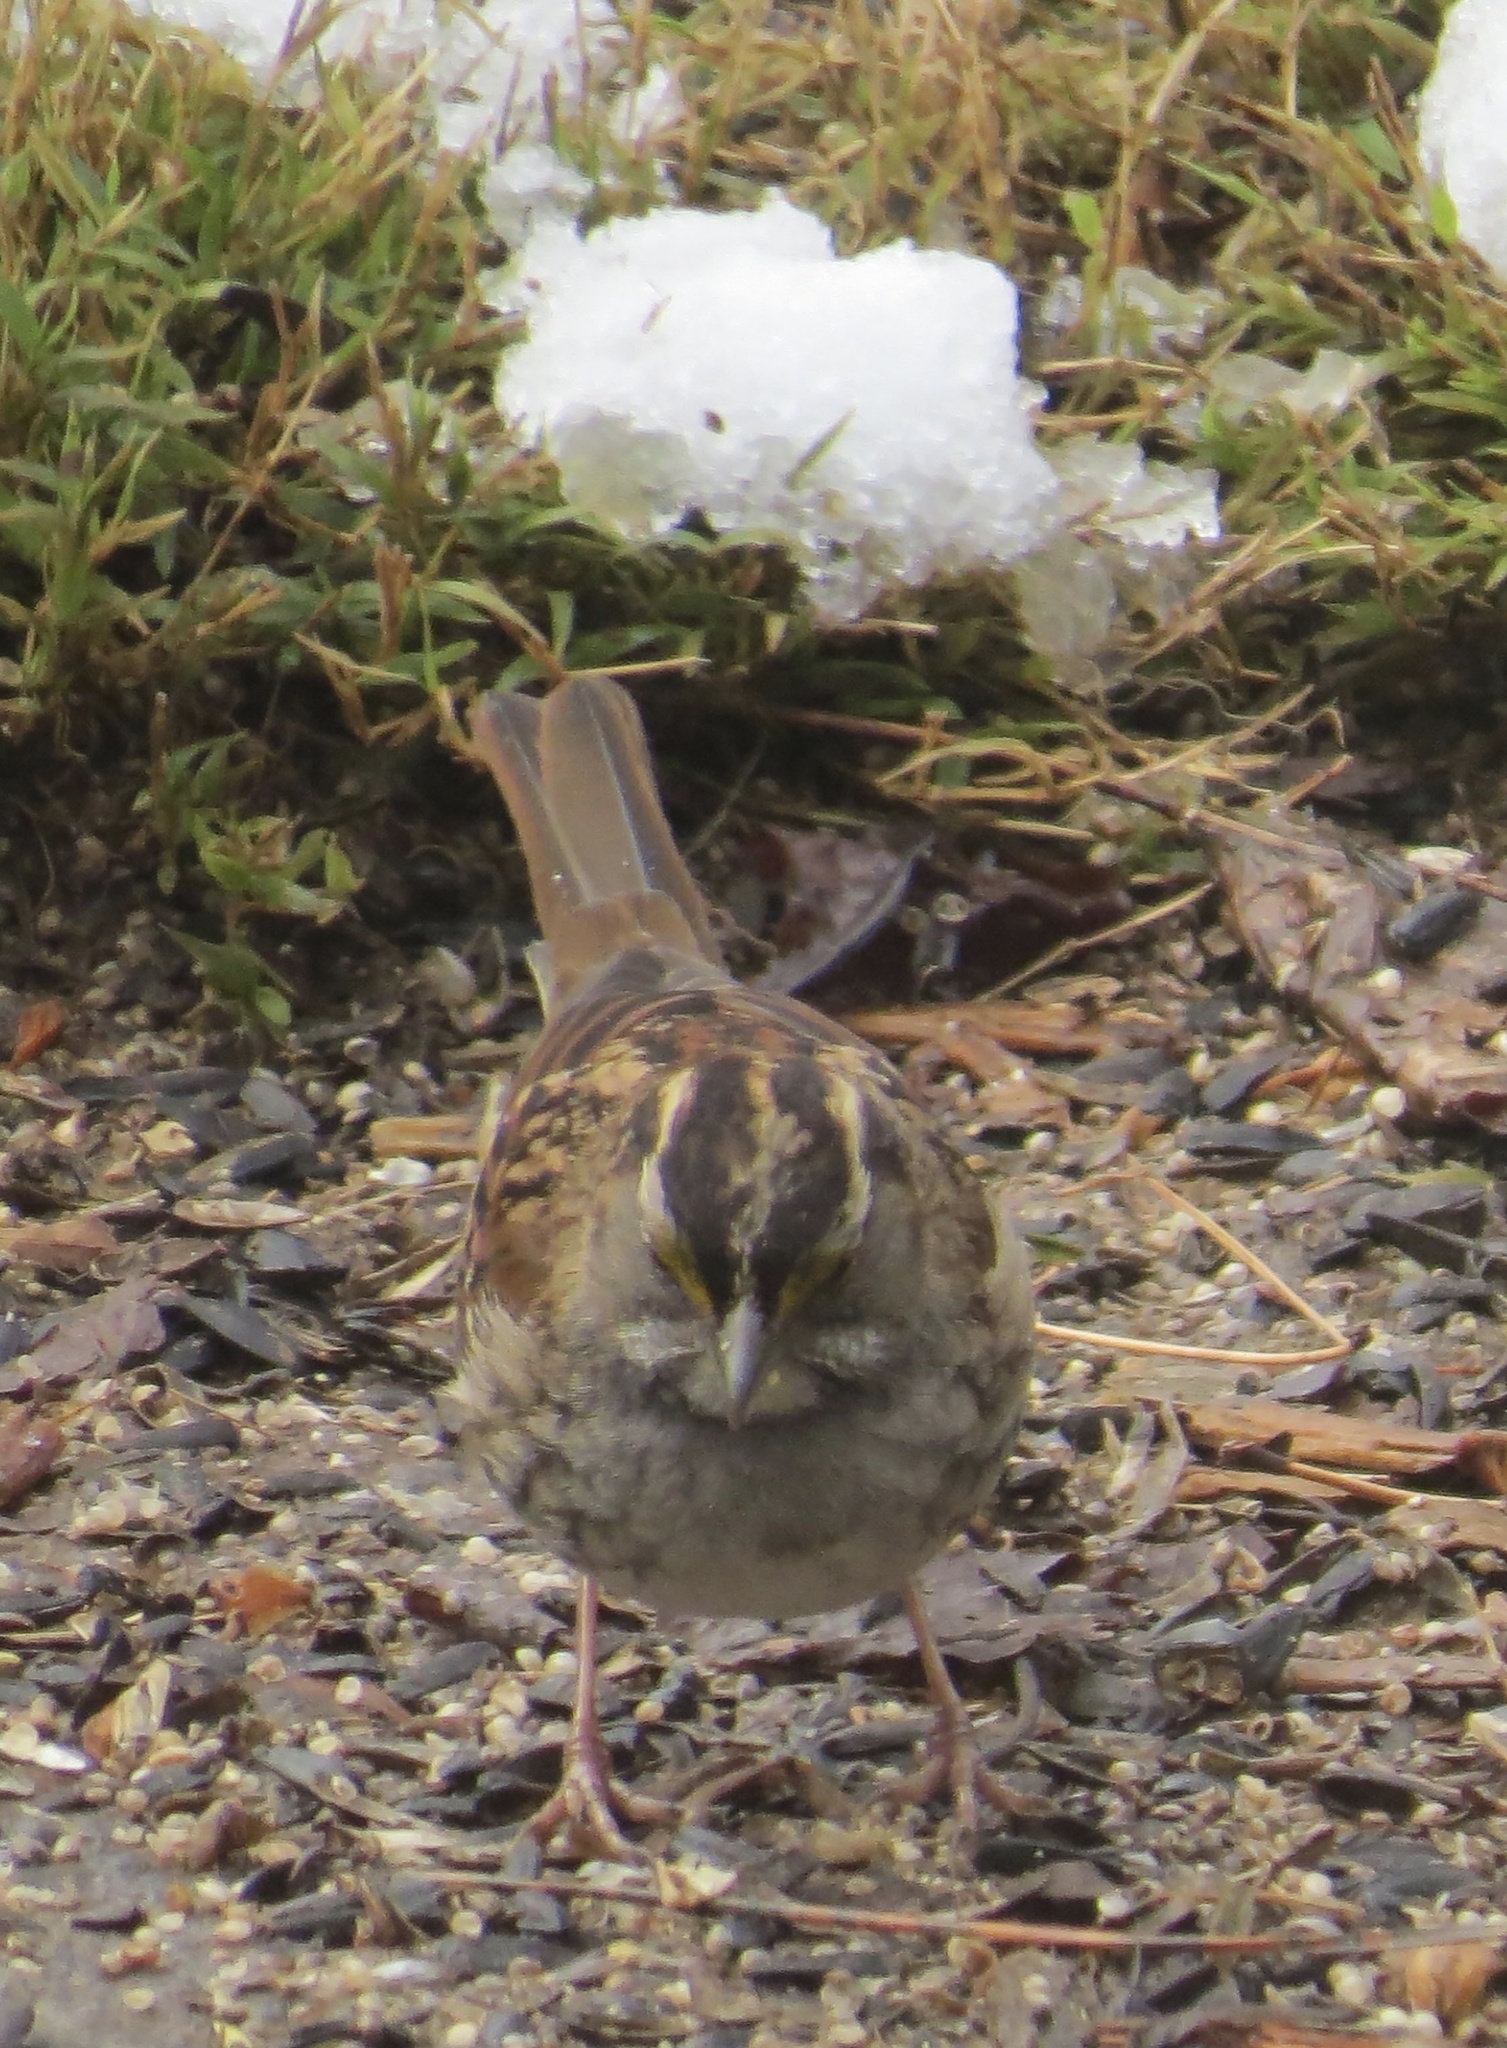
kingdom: Animalia
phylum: Chordata
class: Aves
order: Passeriformes
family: Passerellidae
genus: Zonotrichia
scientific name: Zonotrichia albicollis
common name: White-throated sparrow
